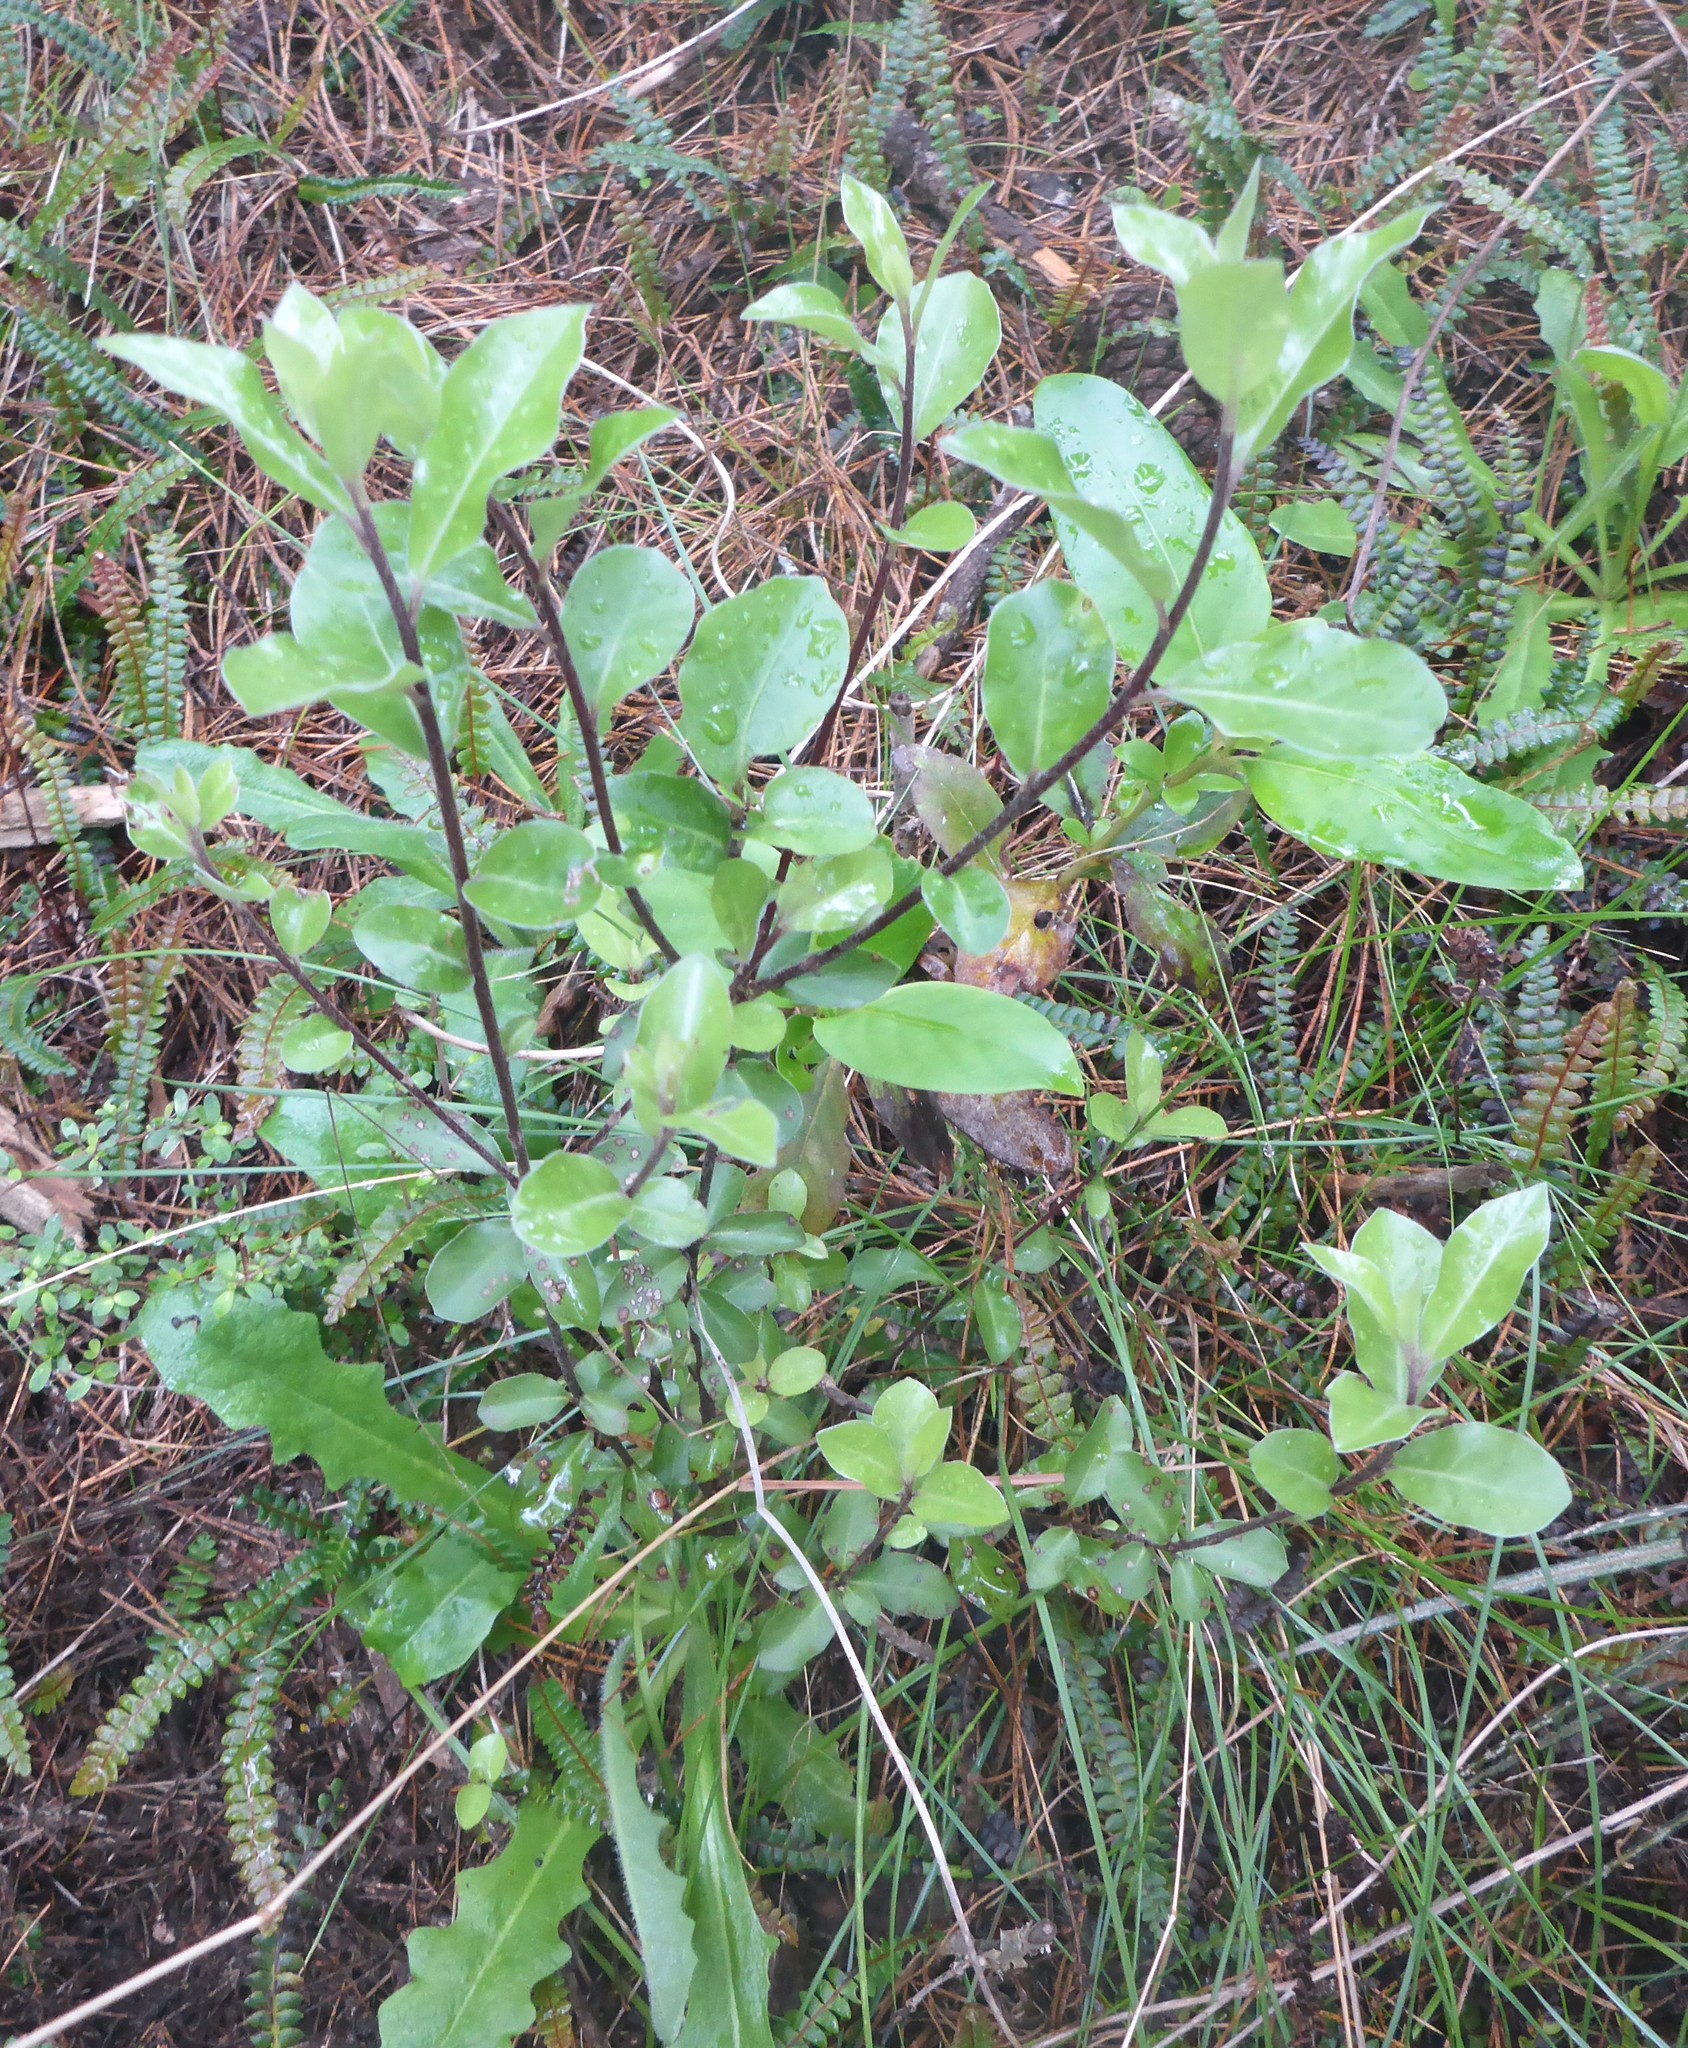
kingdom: Plantae
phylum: Tracheophyta
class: Magnoliopsida
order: Apiales
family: Pittosporaceae
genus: Pittosporum
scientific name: Pittosporum tenuifolium
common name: Kohuhu
